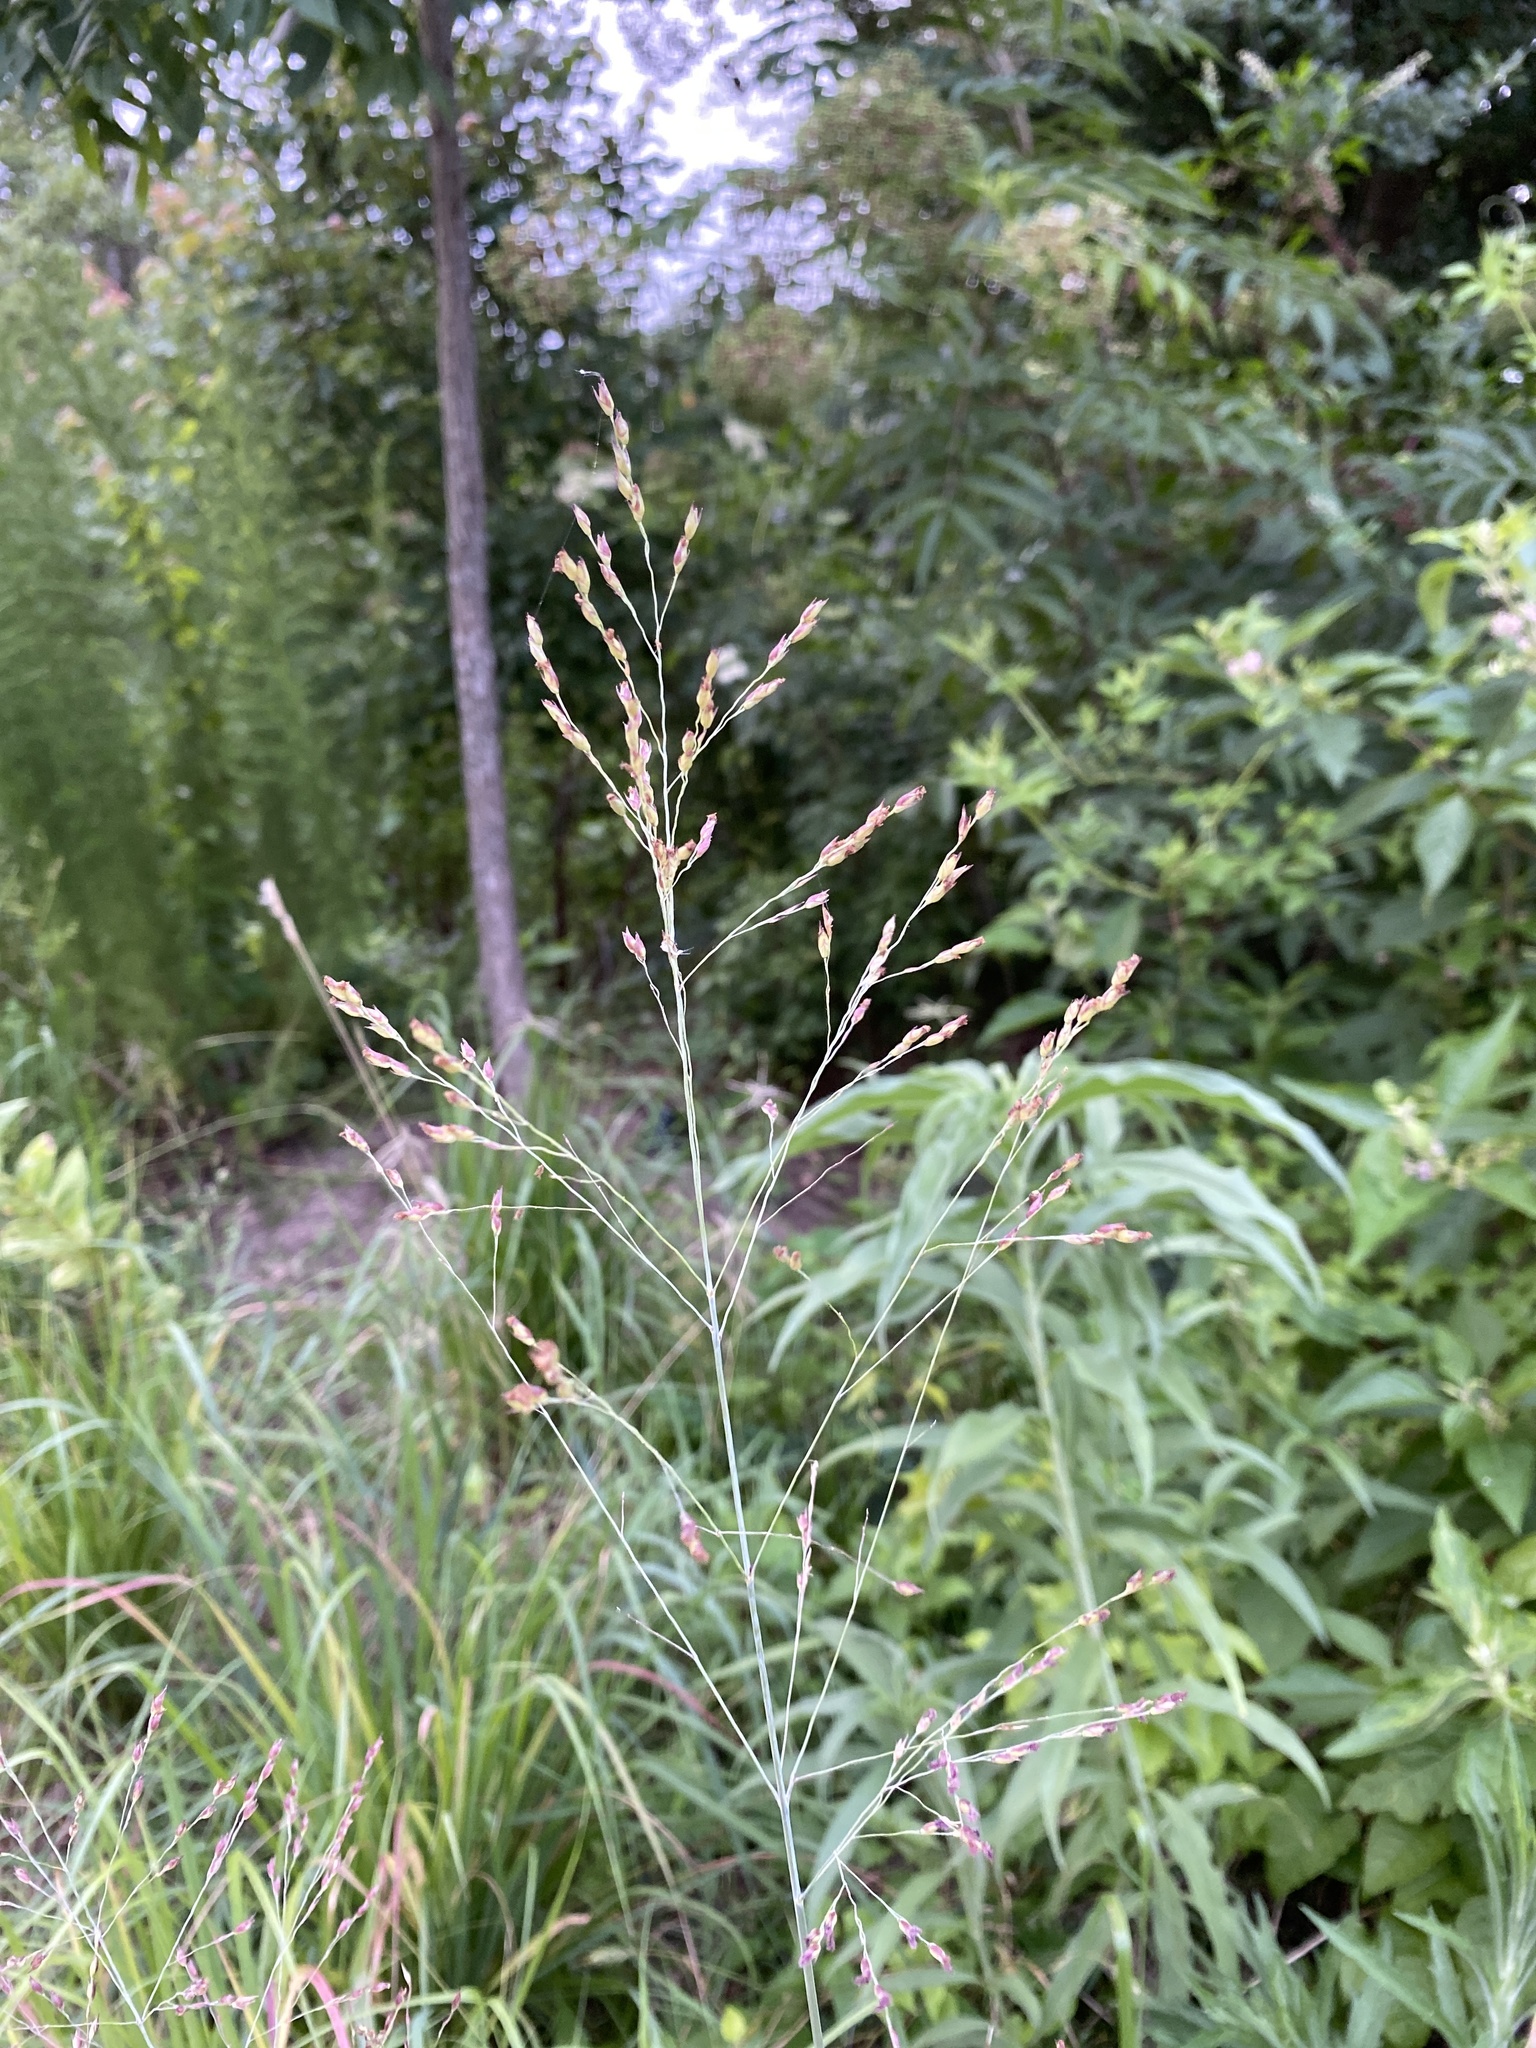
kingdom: Plantae
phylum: Tracheophyta
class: Liliopsida
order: Poales
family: Poaceae
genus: Panicum
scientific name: Panicum virgatum
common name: Switchgrass
